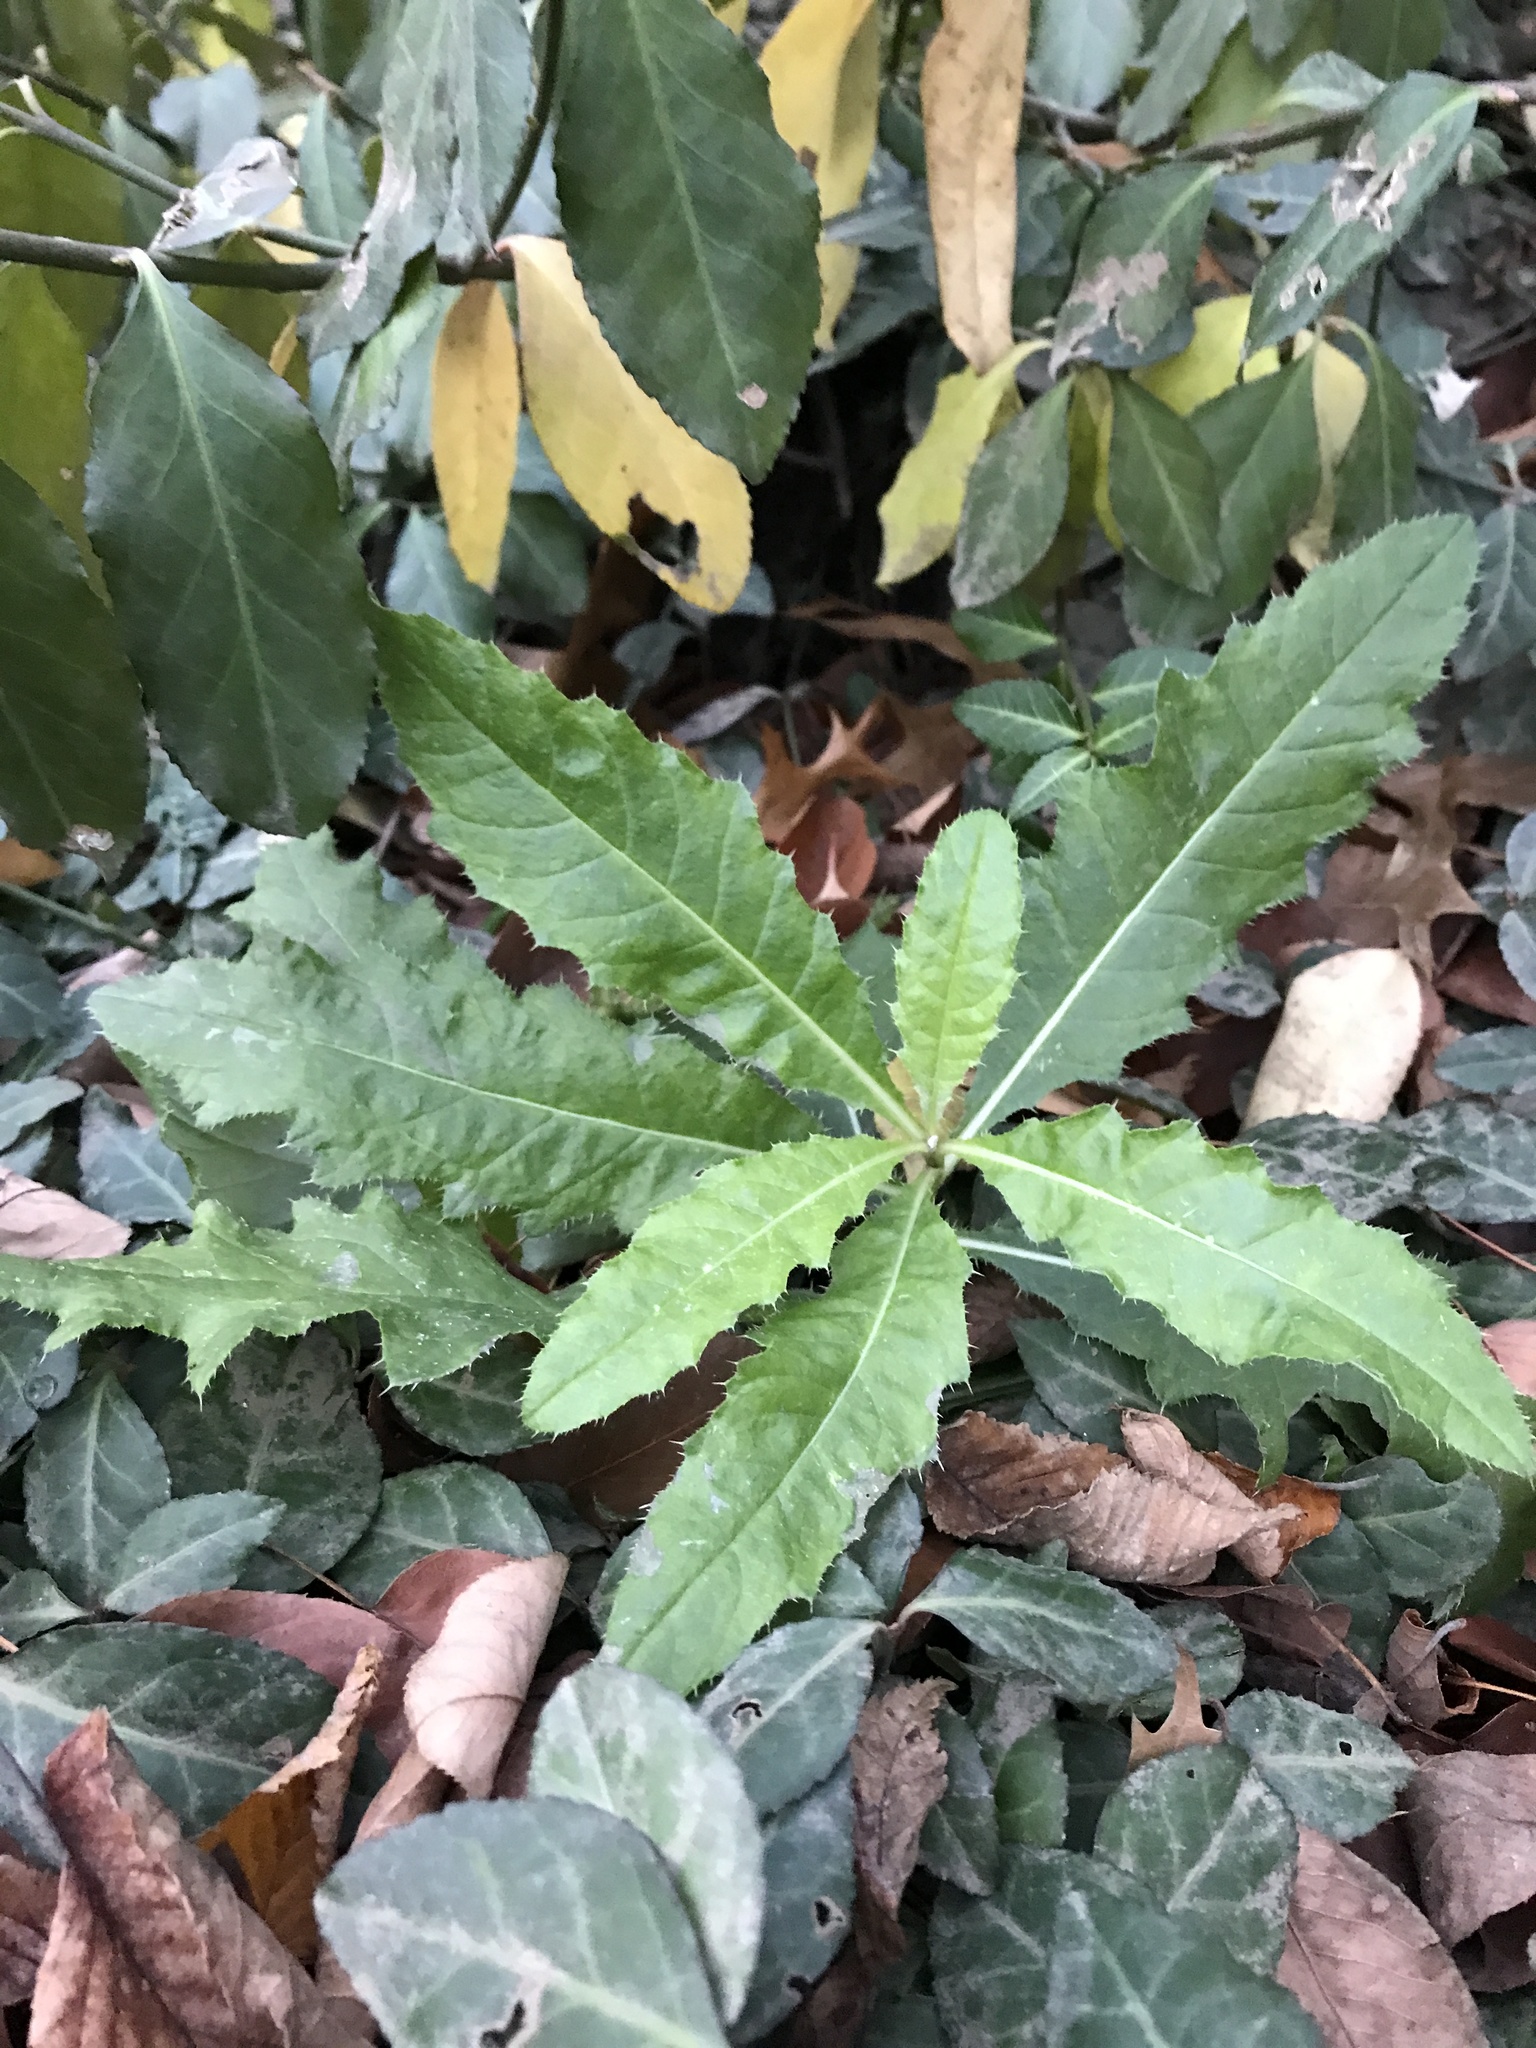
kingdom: Plantae
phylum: Tracheophyta
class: Magnoliopsida
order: Asterales
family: Asteraceae
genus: Cirsium
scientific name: Cirsium arvense
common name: Creeping thistle
